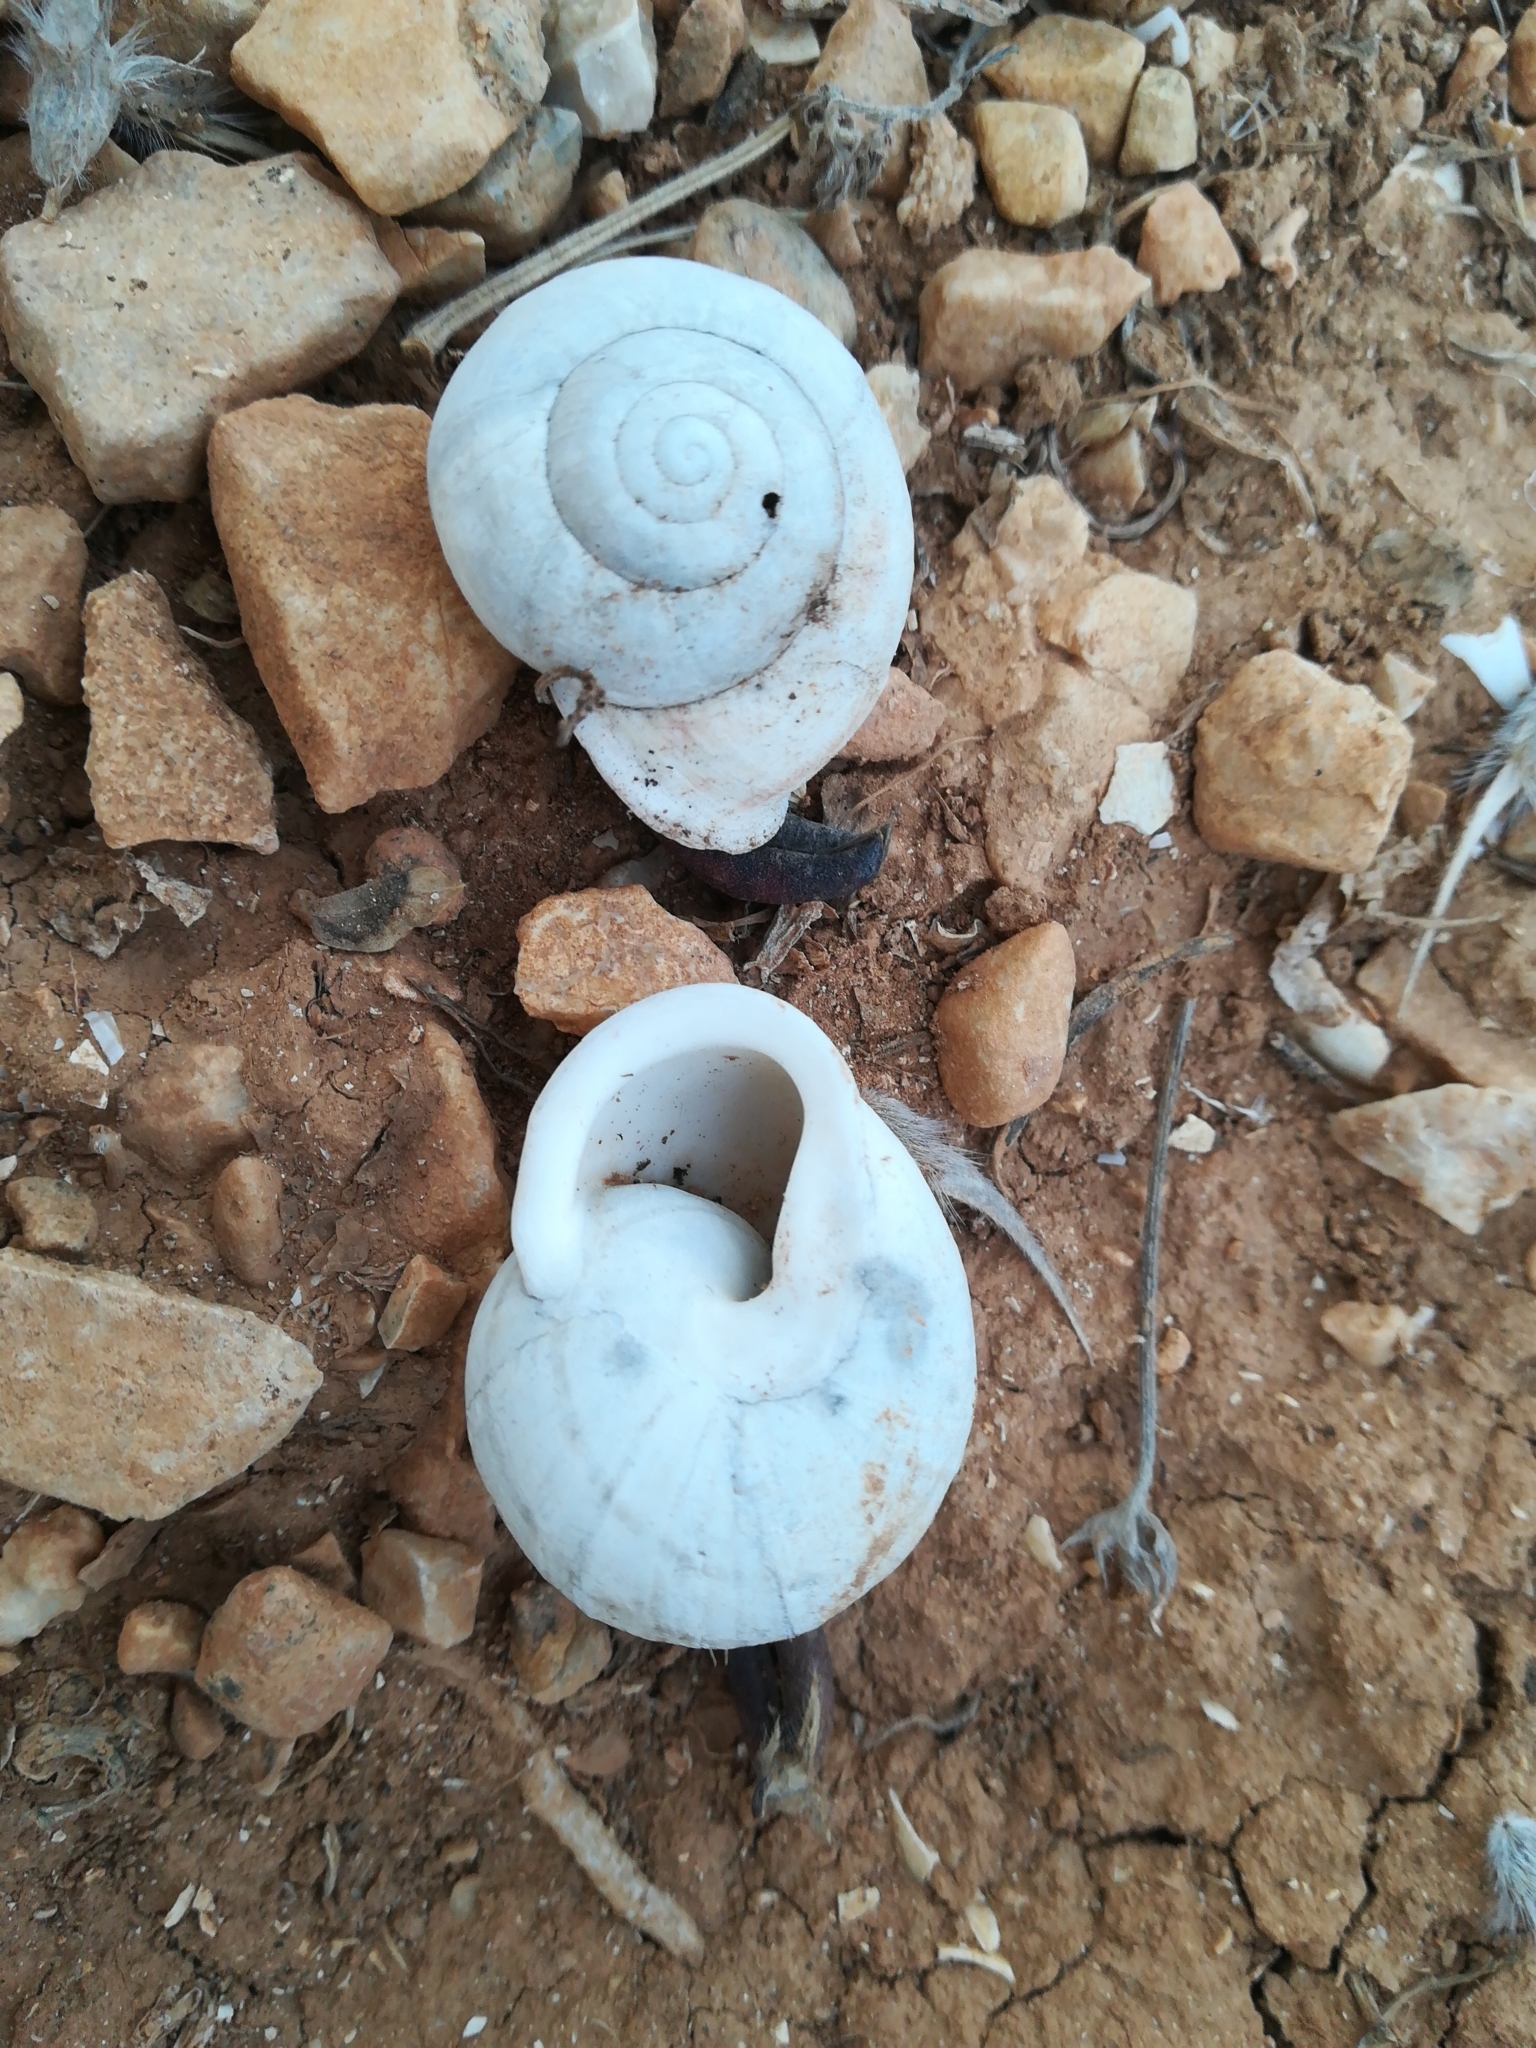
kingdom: Animalia
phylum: Mollusca
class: Gastropoda
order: Stylommatophora
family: Helicidae
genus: Eobania
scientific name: Eobania vermiculata
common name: Chocolateband snail
